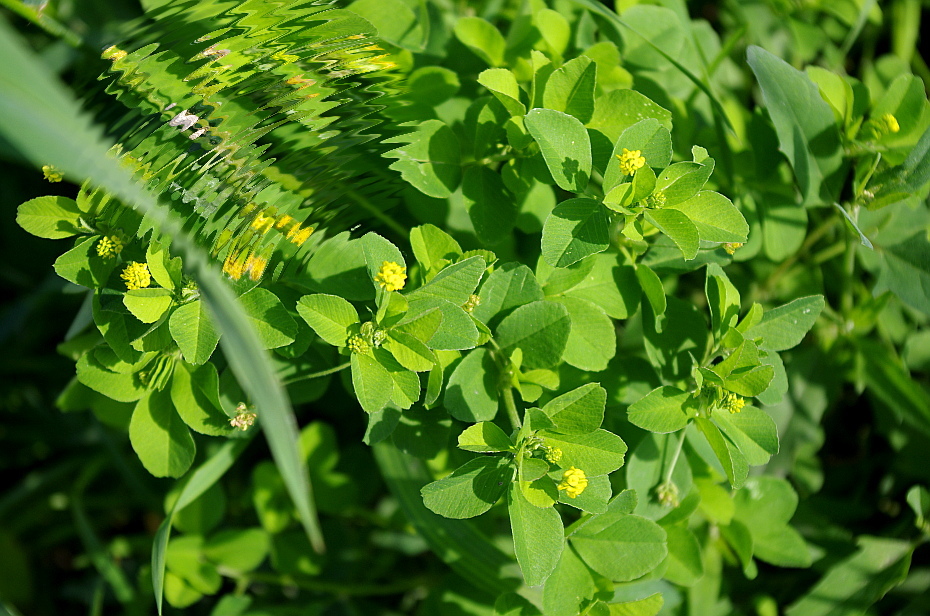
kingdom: Plantae
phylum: Tracheophyta
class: Magnoliopsida
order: Fabales
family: Fabaceae
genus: Medicago
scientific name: Medicago lupulina
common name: Black medick
